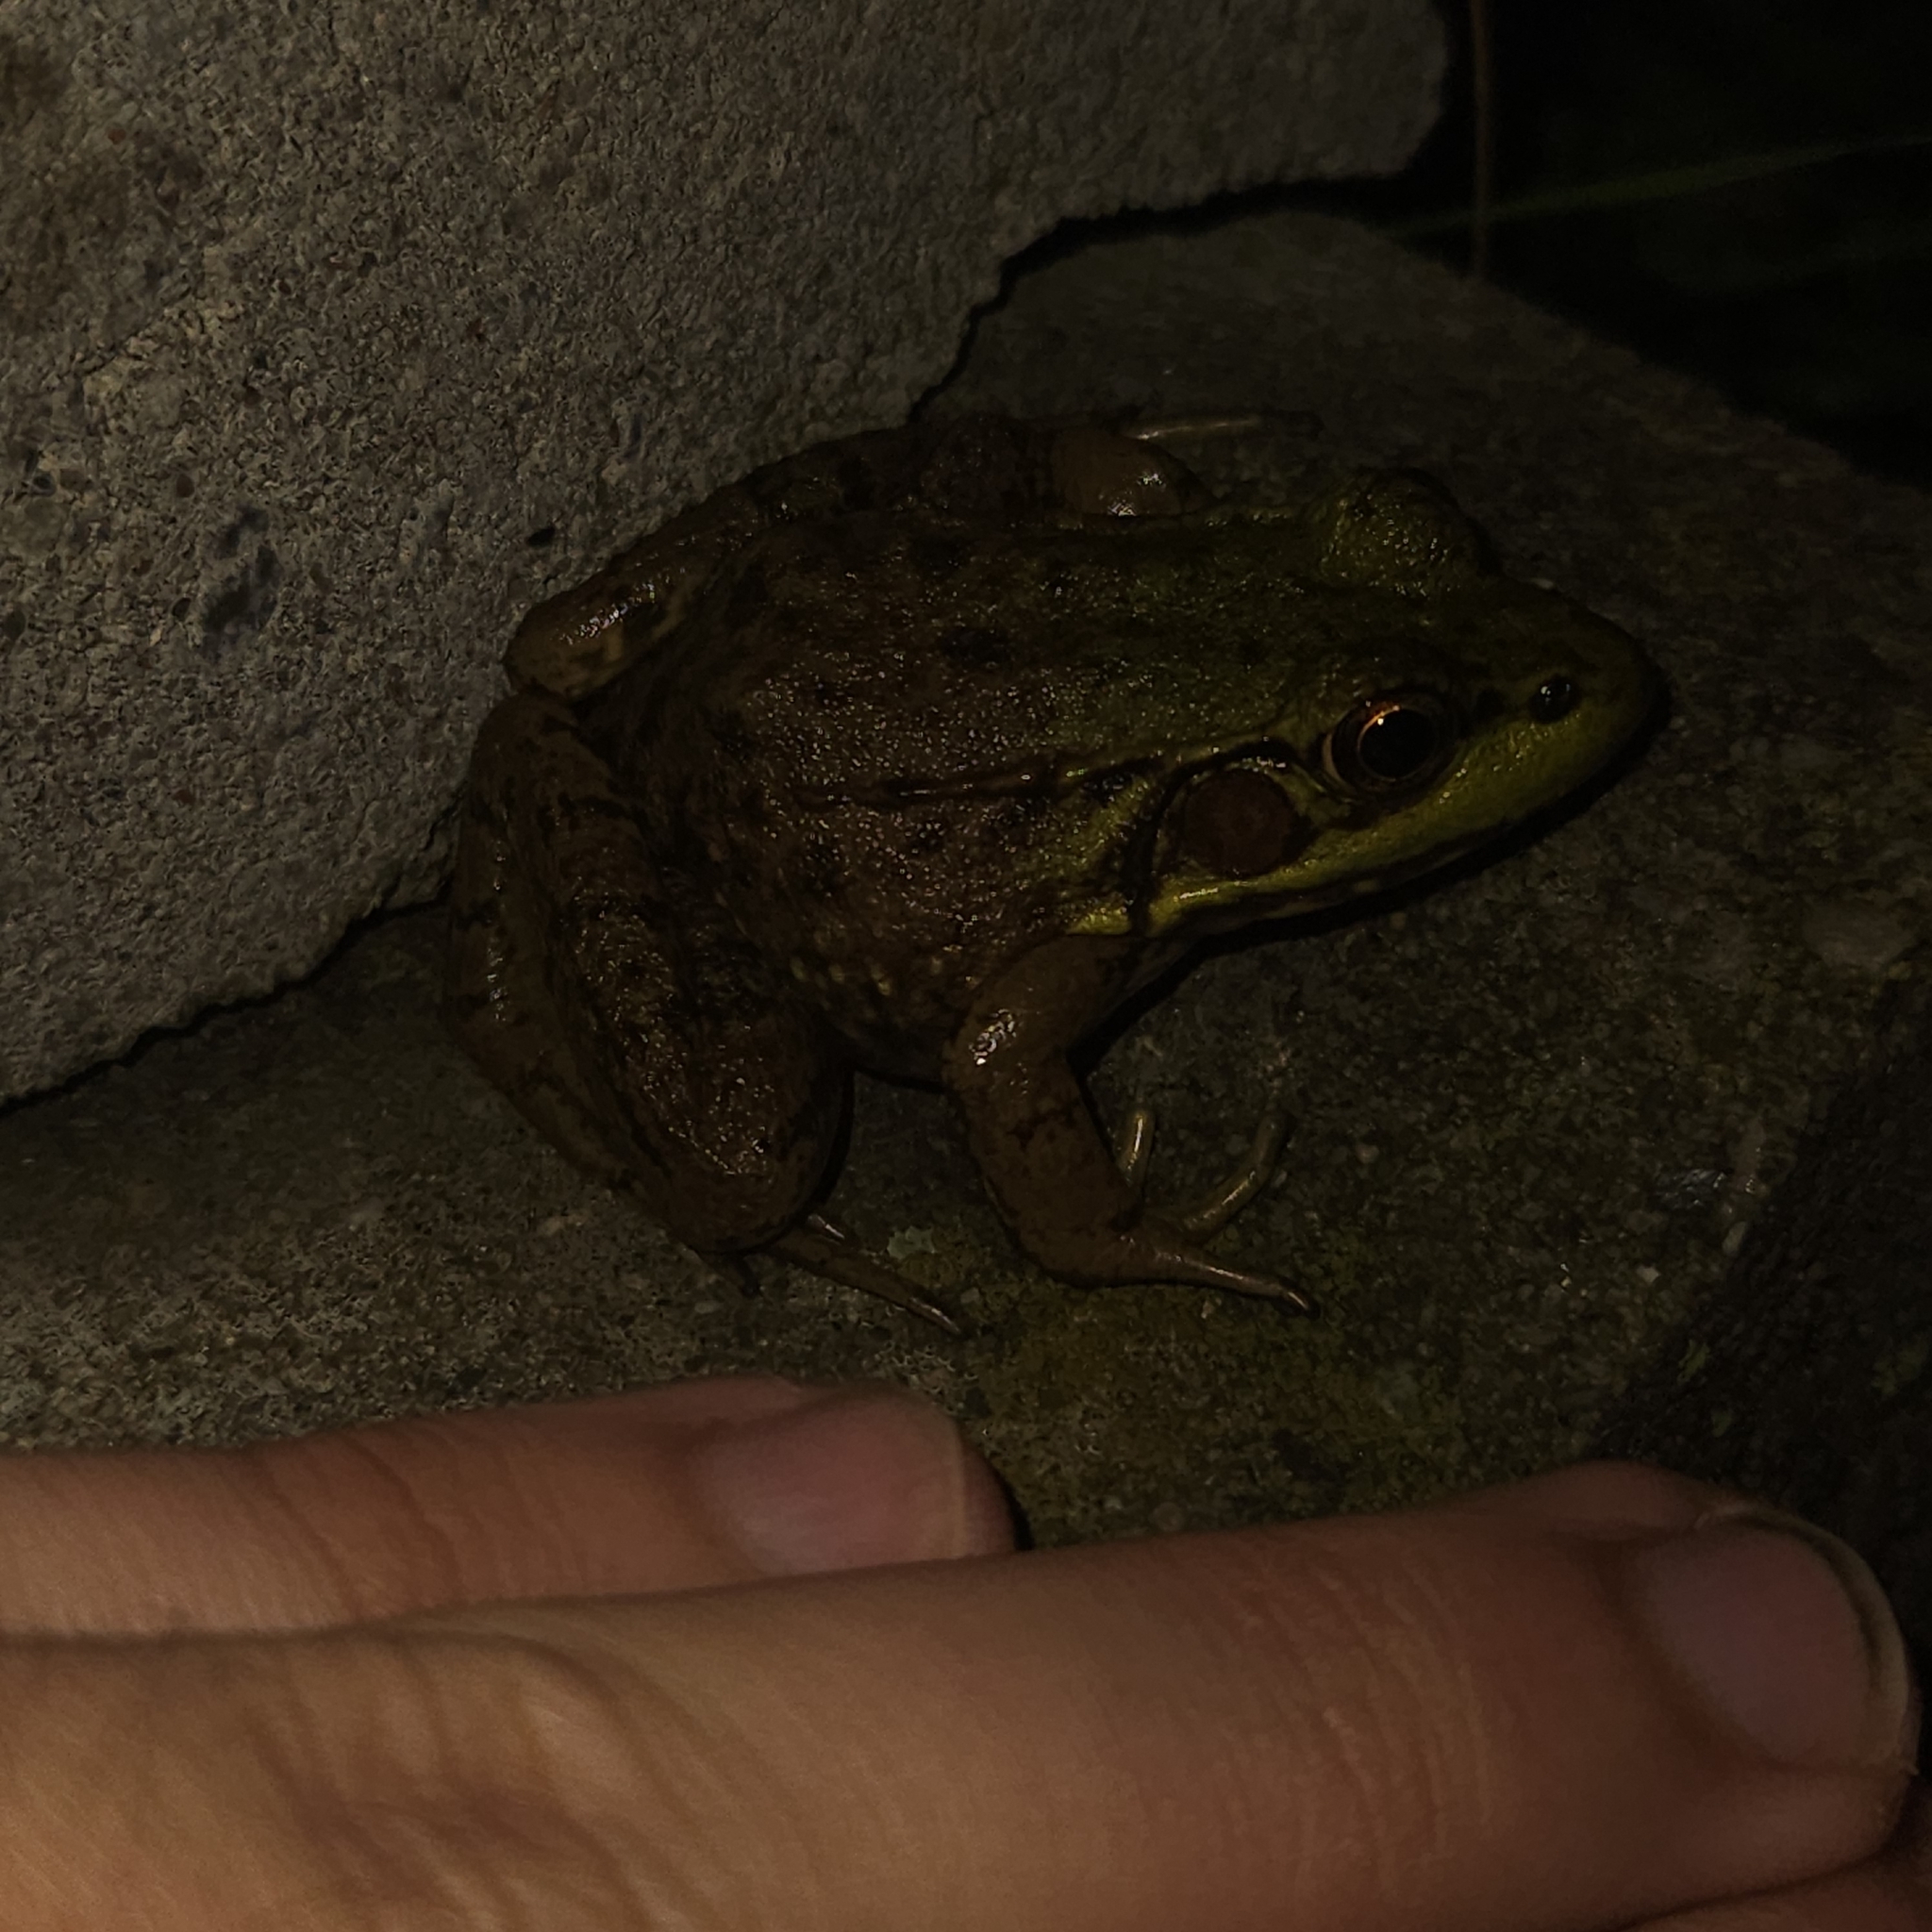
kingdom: Animalia
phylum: Chordata
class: Amphibia
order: Anura
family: Ranidae
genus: Lithobates
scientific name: Lithobates clamitans
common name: Green frog
